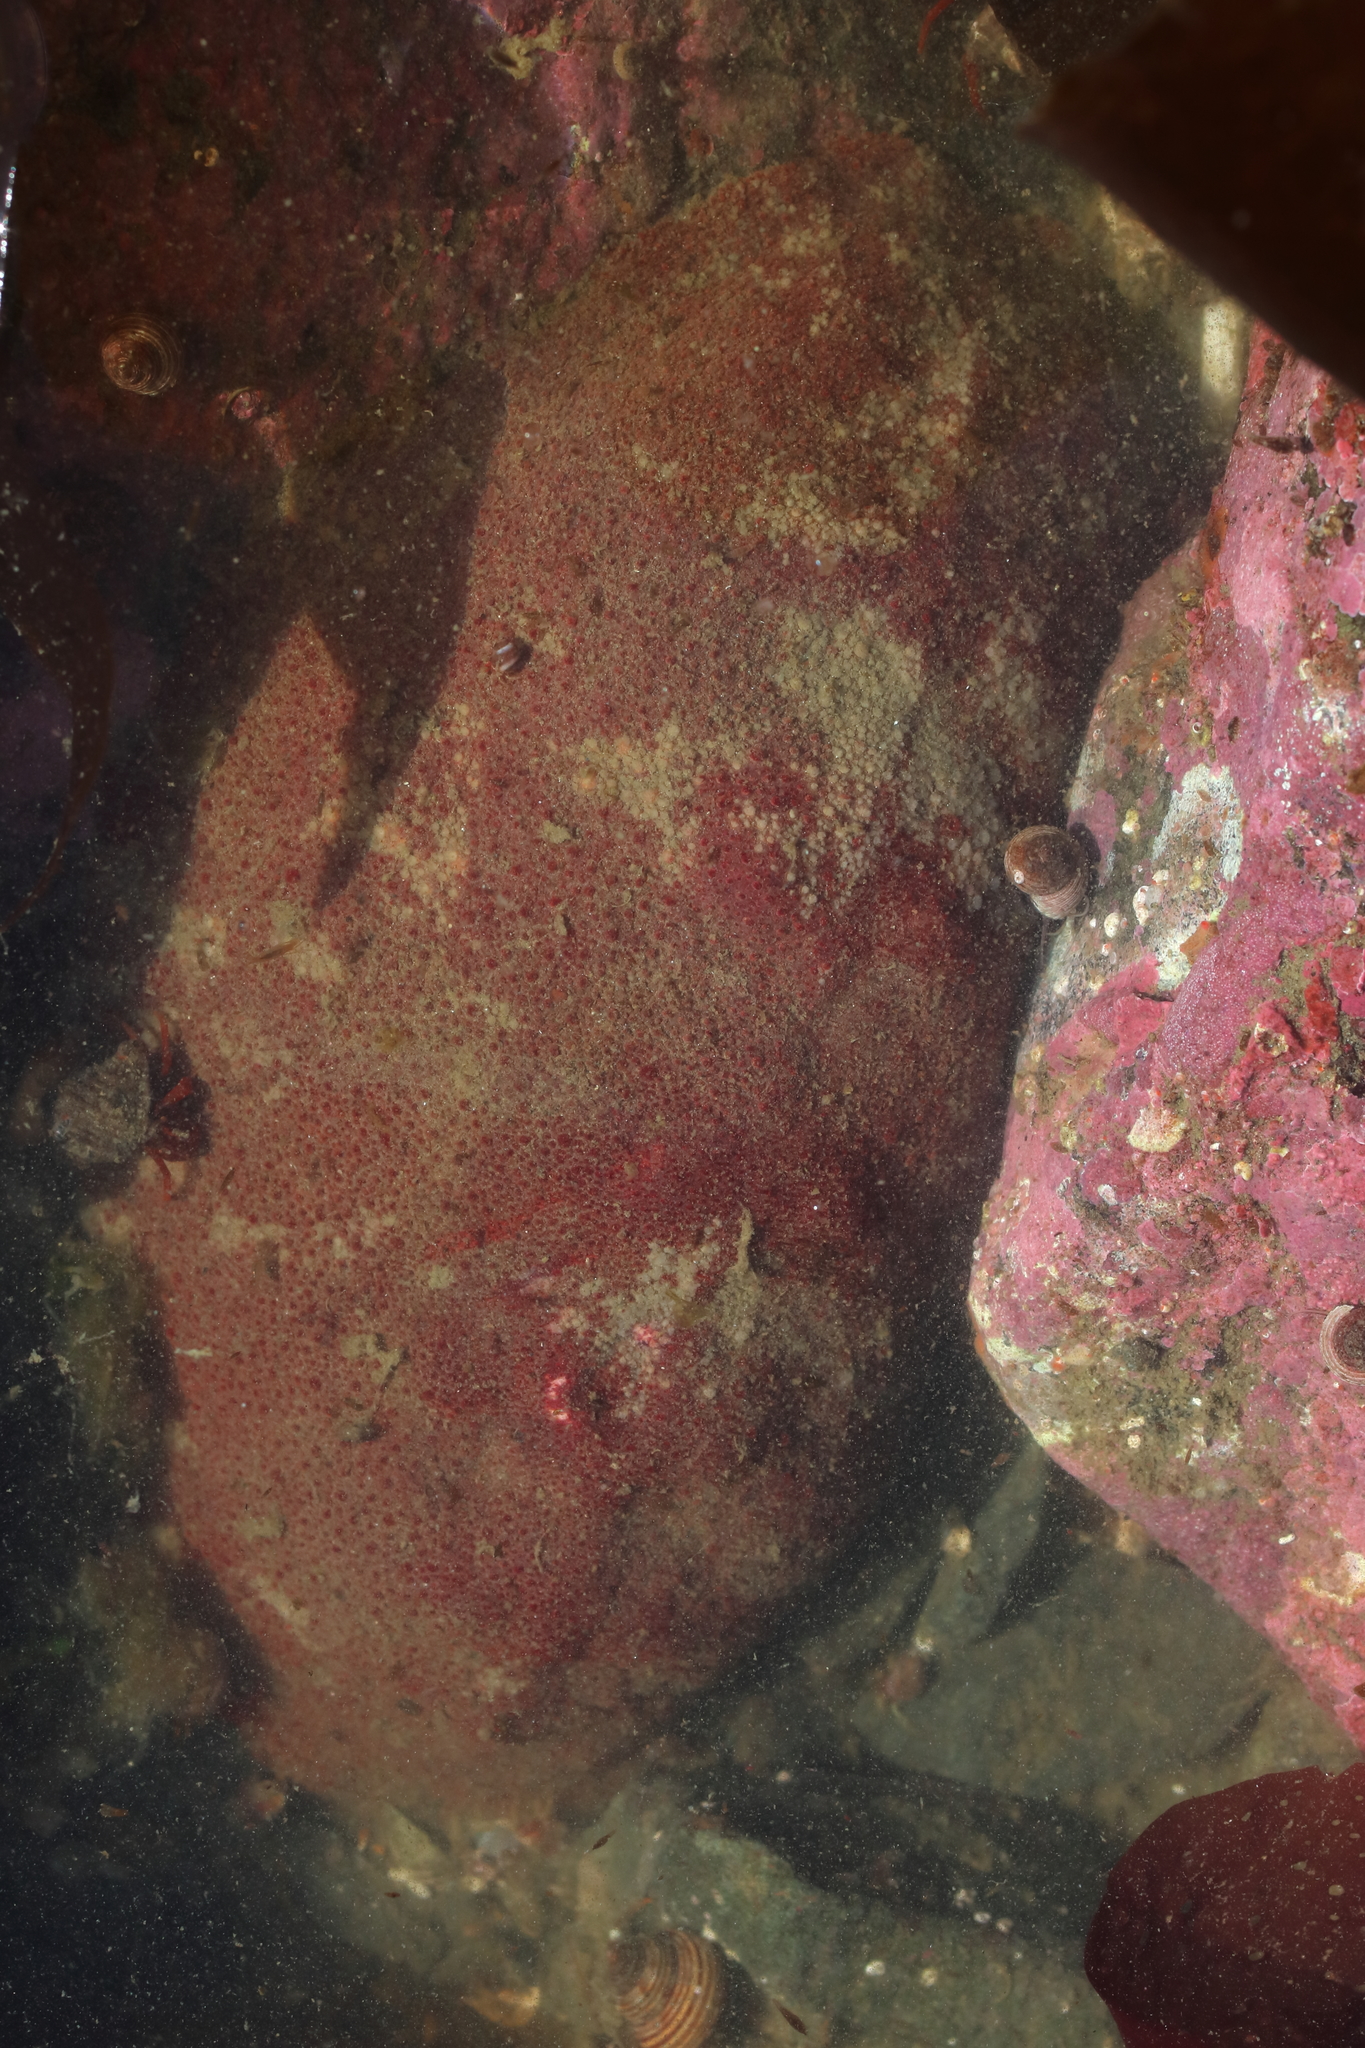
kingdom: Animalia
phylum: Mollusca
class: Polyplacophora
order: Chitonida
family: Acanthochitonidae
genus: Cryptochiton
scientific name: Cryptochiton stelleri
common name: Giant pacific chiton
